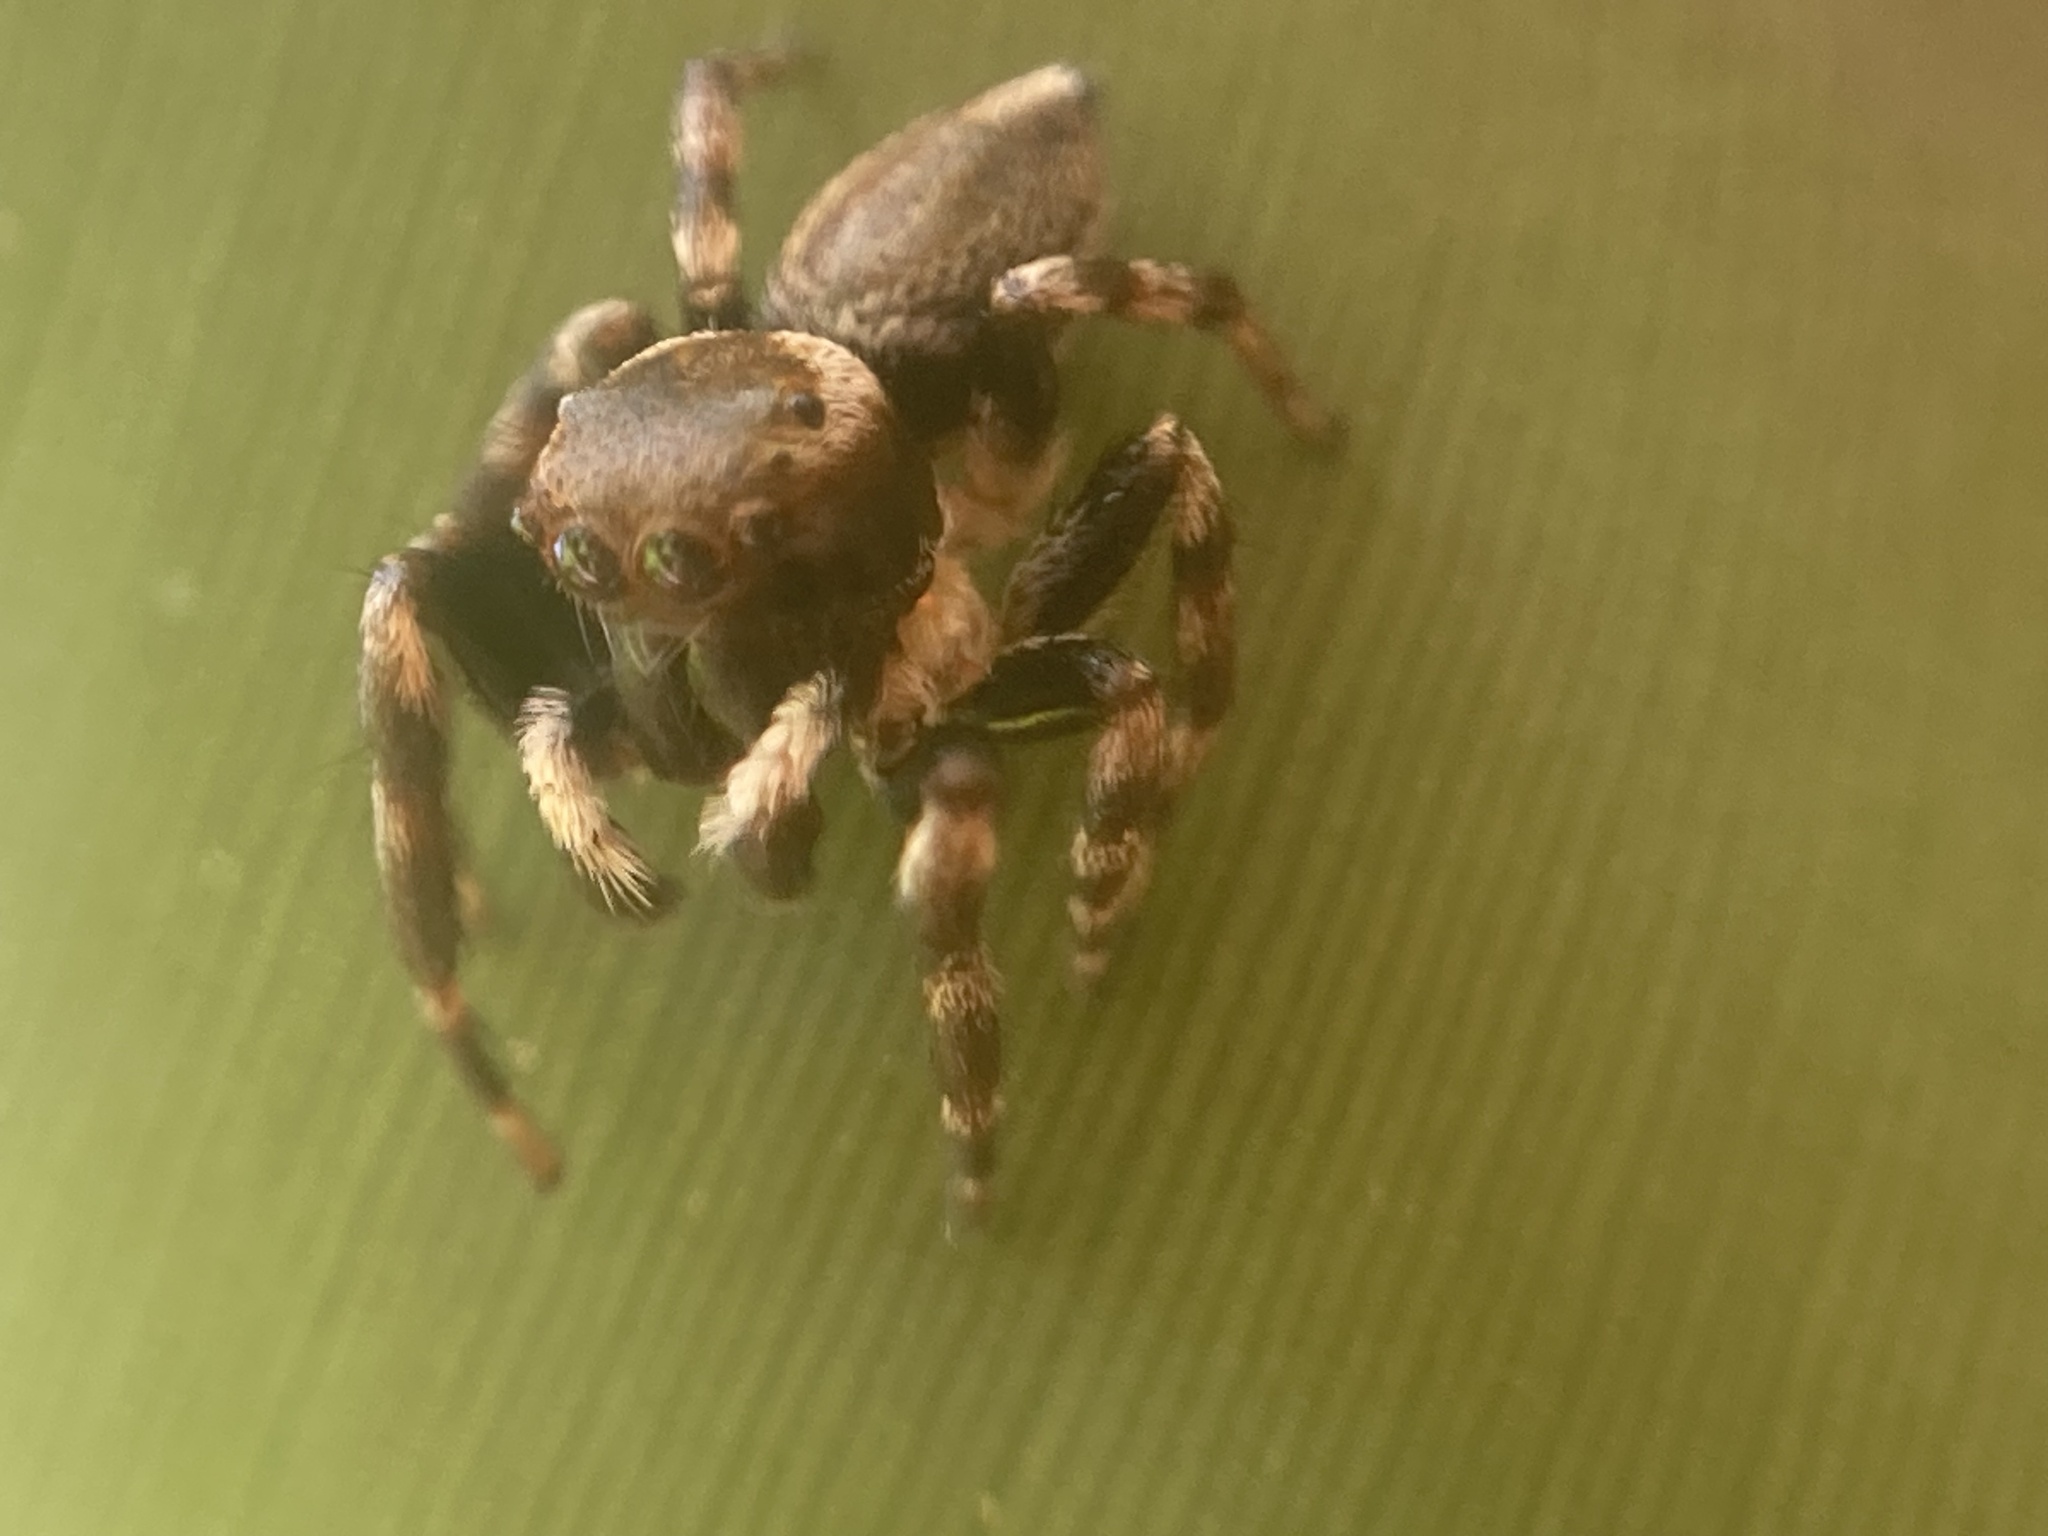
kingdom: Animalia
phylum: Arthropoda
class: Arachnida
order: Araneae
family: Salticidae
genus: Maratus
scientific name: Maratus scutulatus
